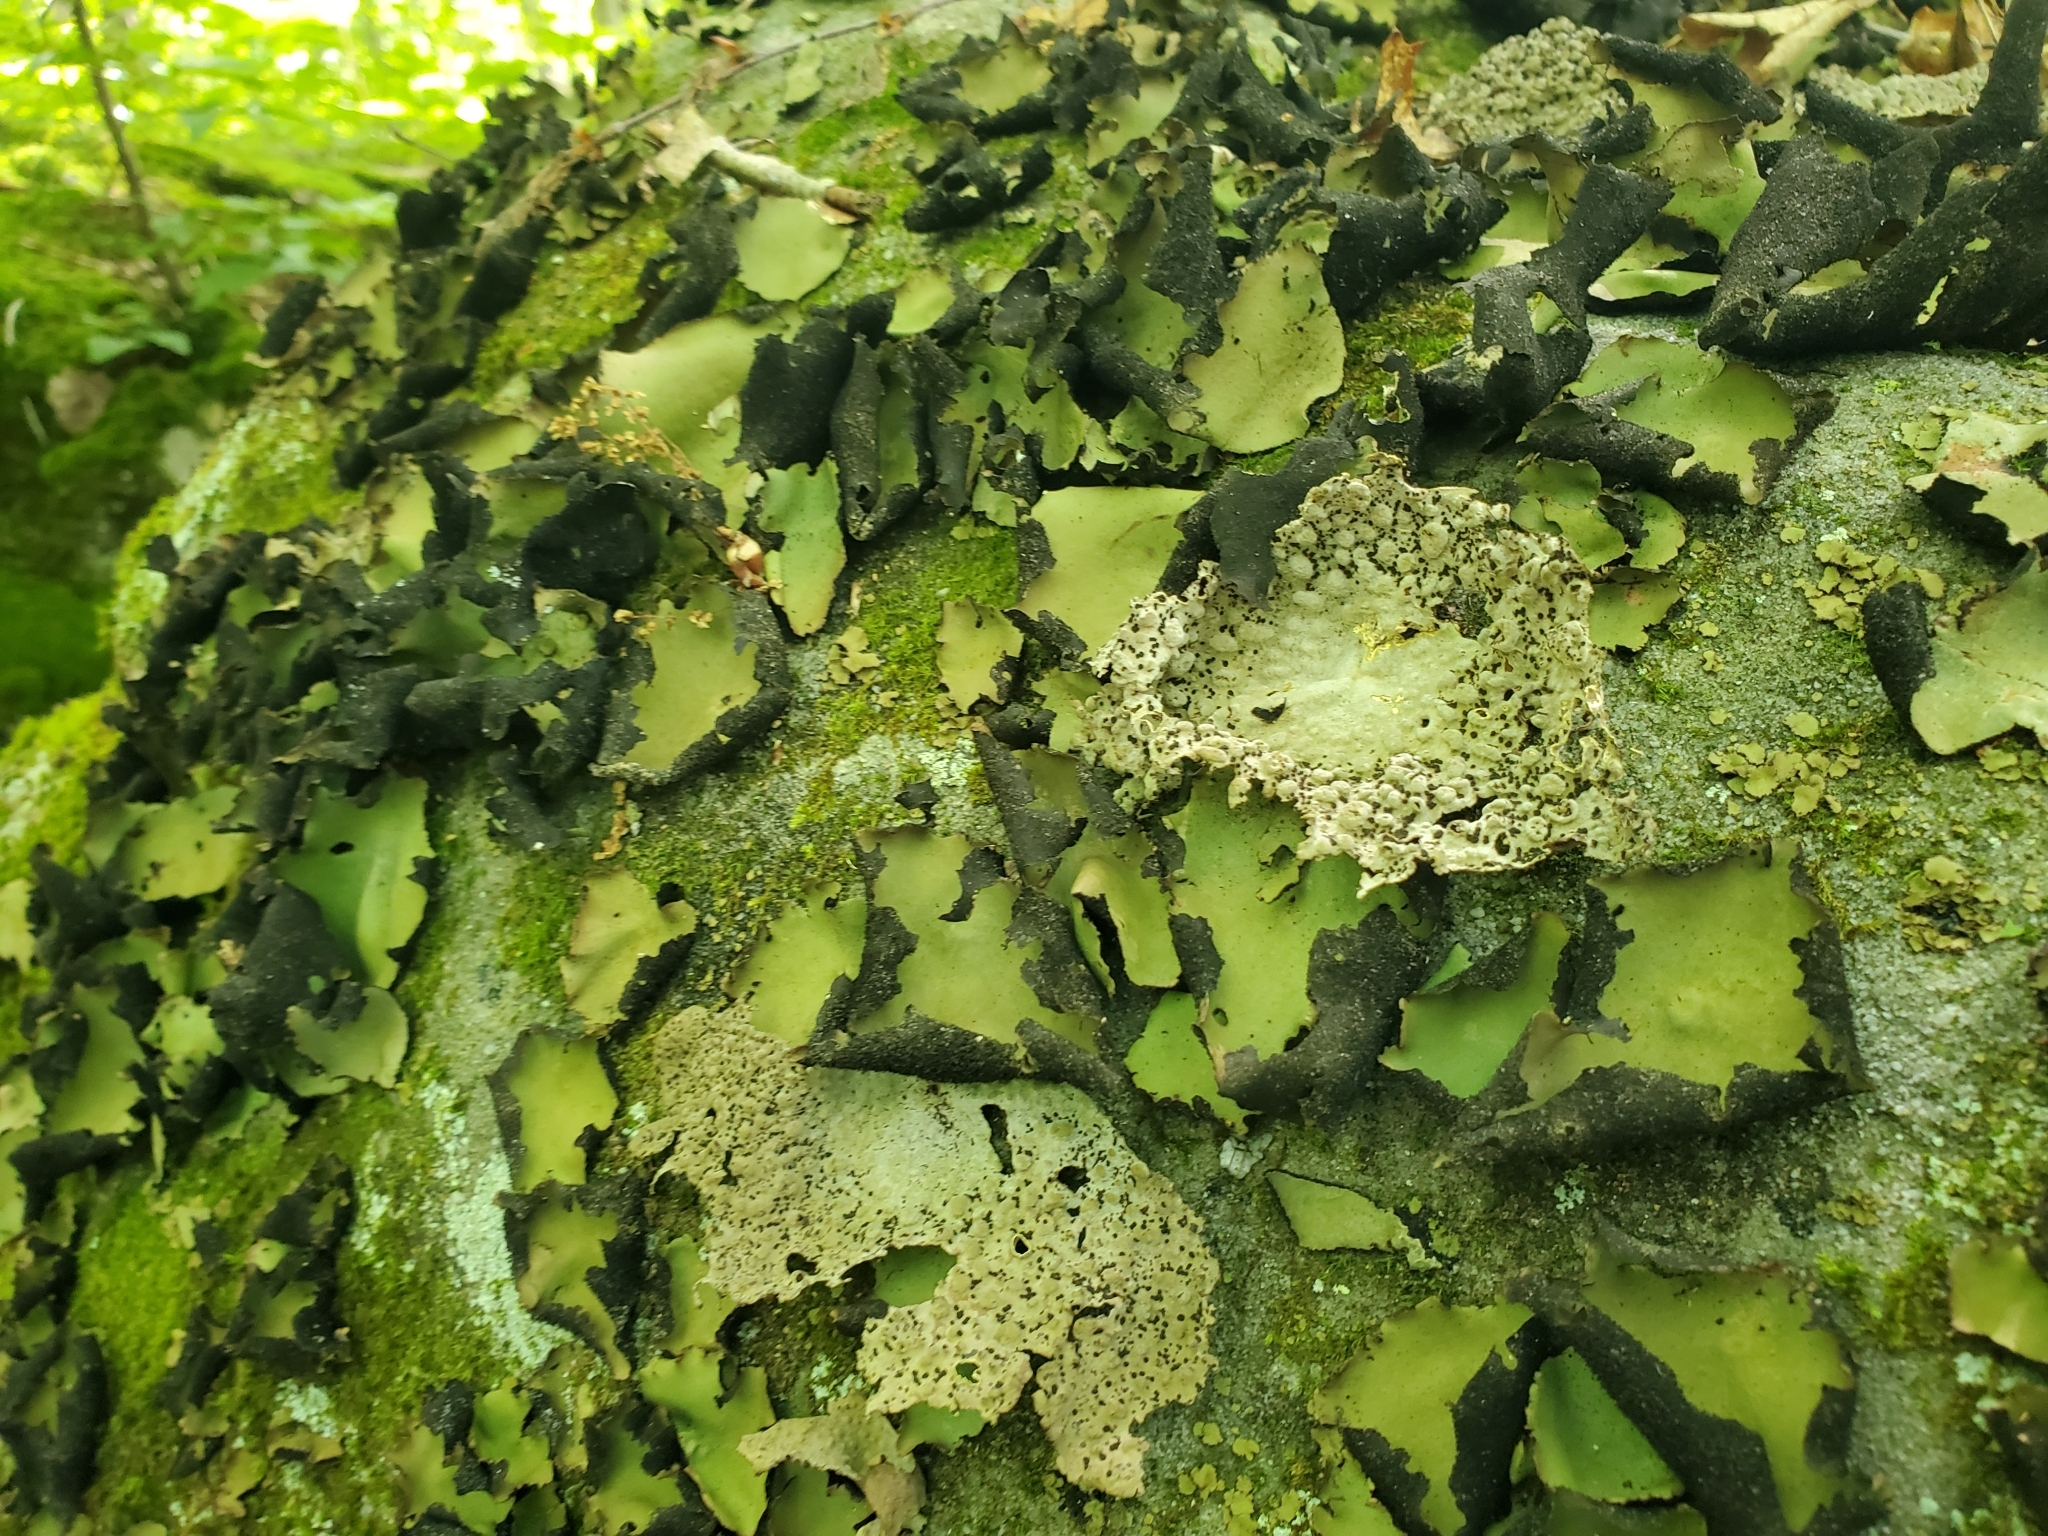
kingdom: Fungi
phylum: Ascomycota
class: Lecanoromycetes
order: Umbilicariales
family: Umbilicariaceae
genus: Umbilicaria
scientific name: Umbilicaria mammulata
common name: Smooth rock tripe
